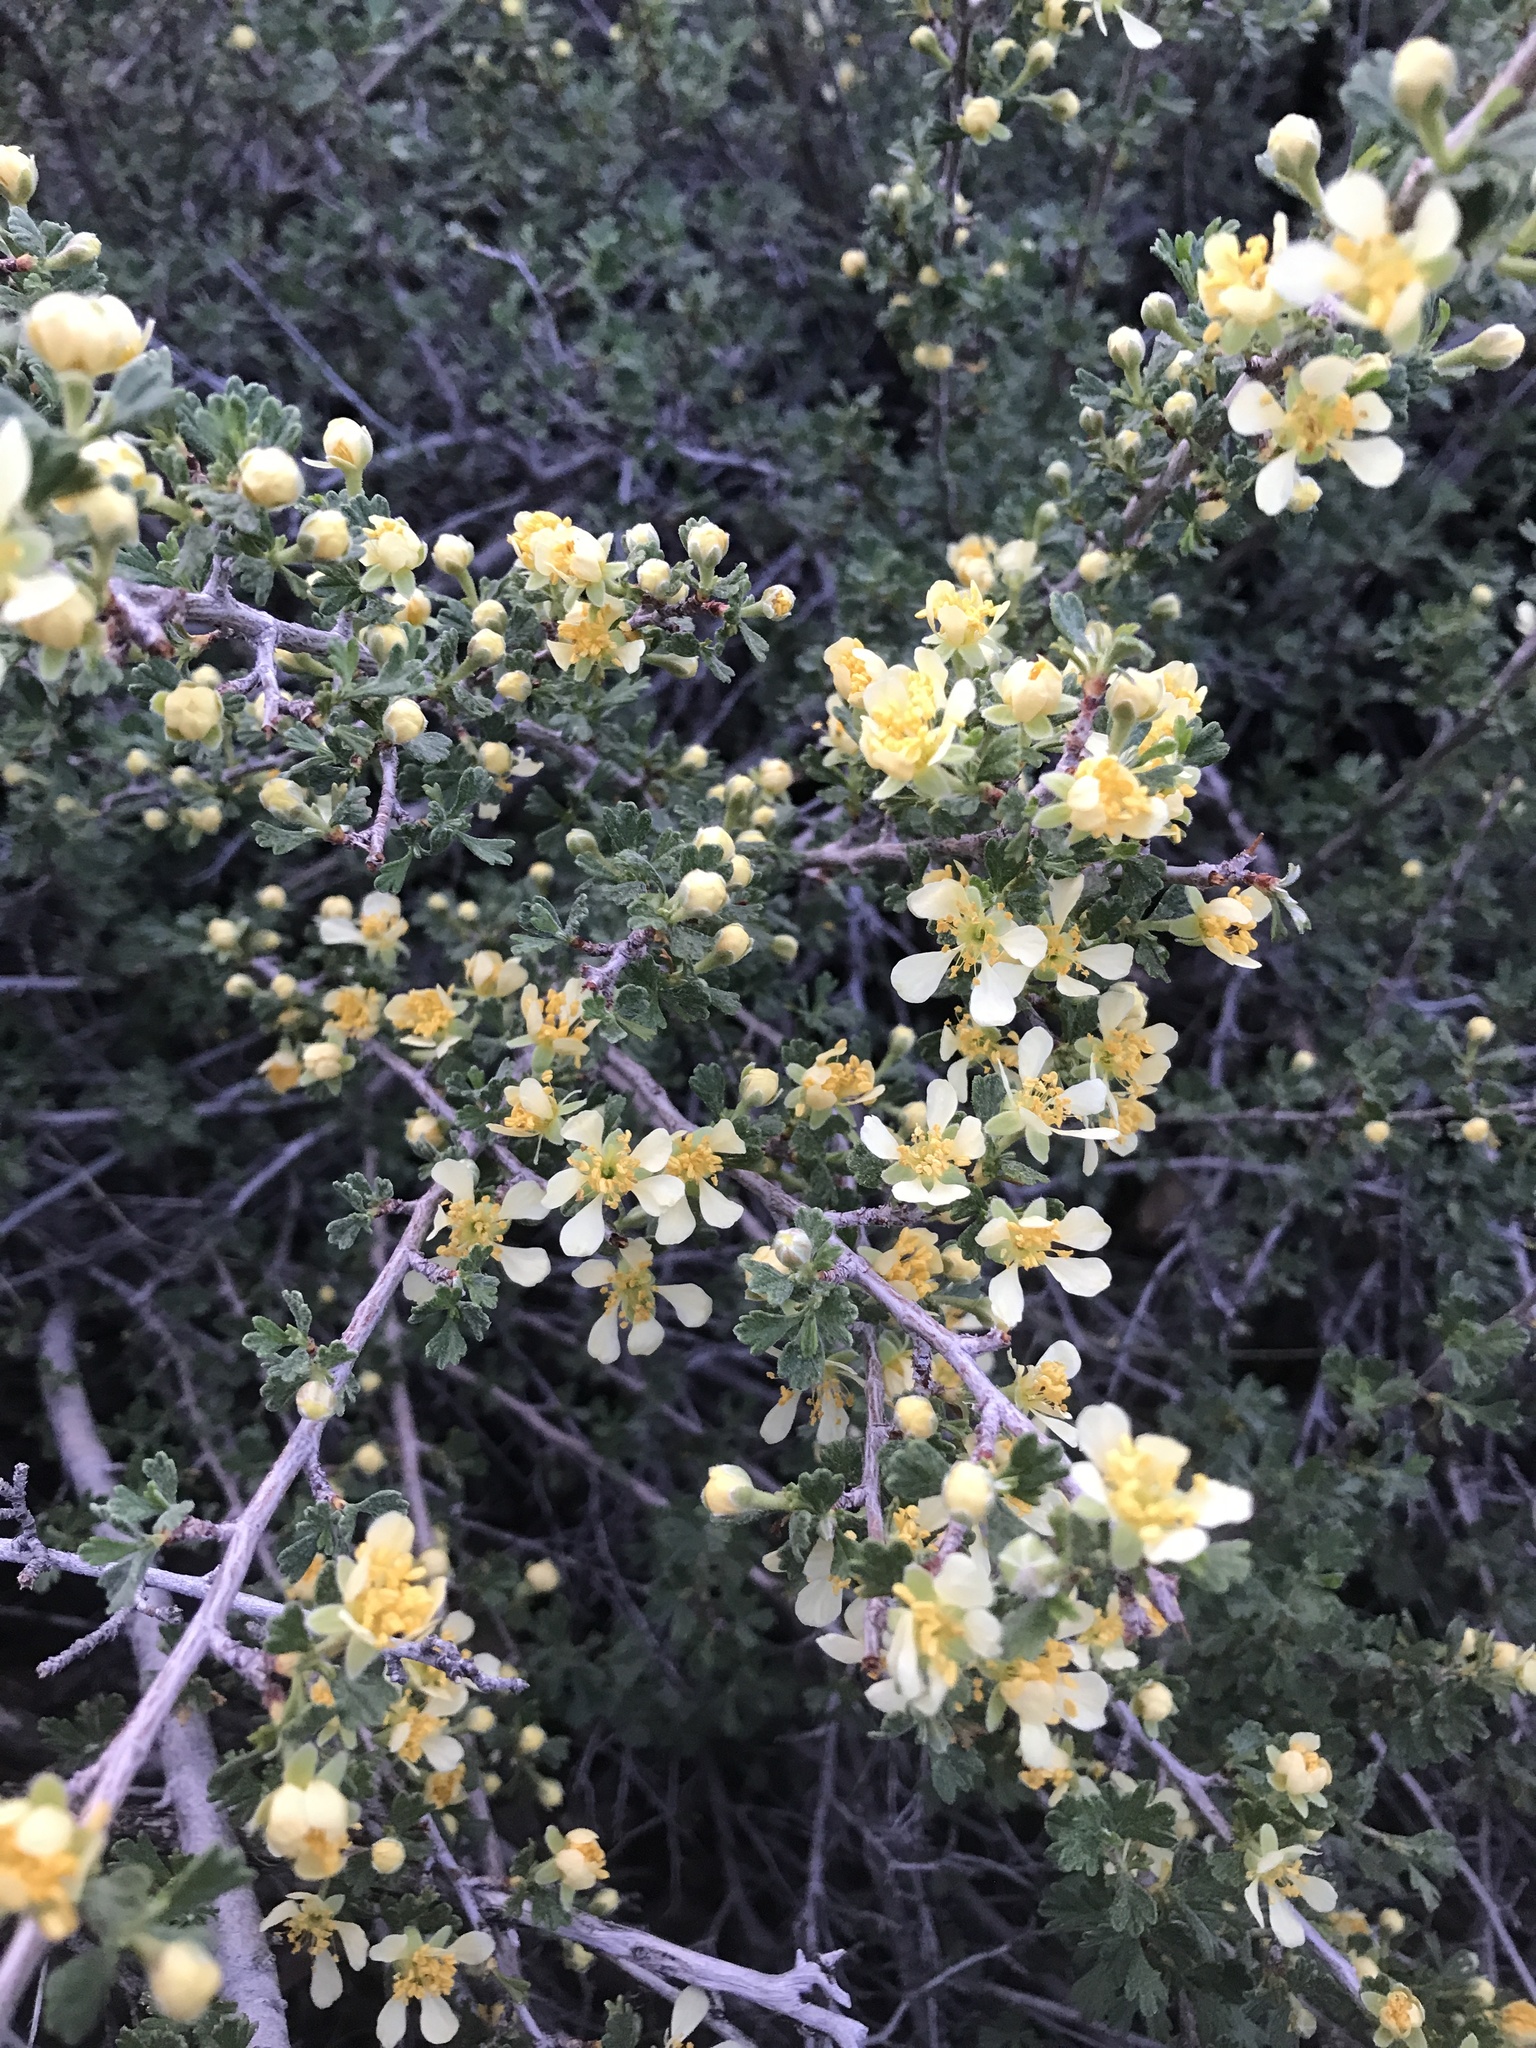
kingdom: Plantae
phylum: Tracheophyta
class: Magnoliopsida
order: Rosales
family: Rosaceae
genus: Purshia
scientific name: Purshia tridentata
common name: Antelope bitterbrush
